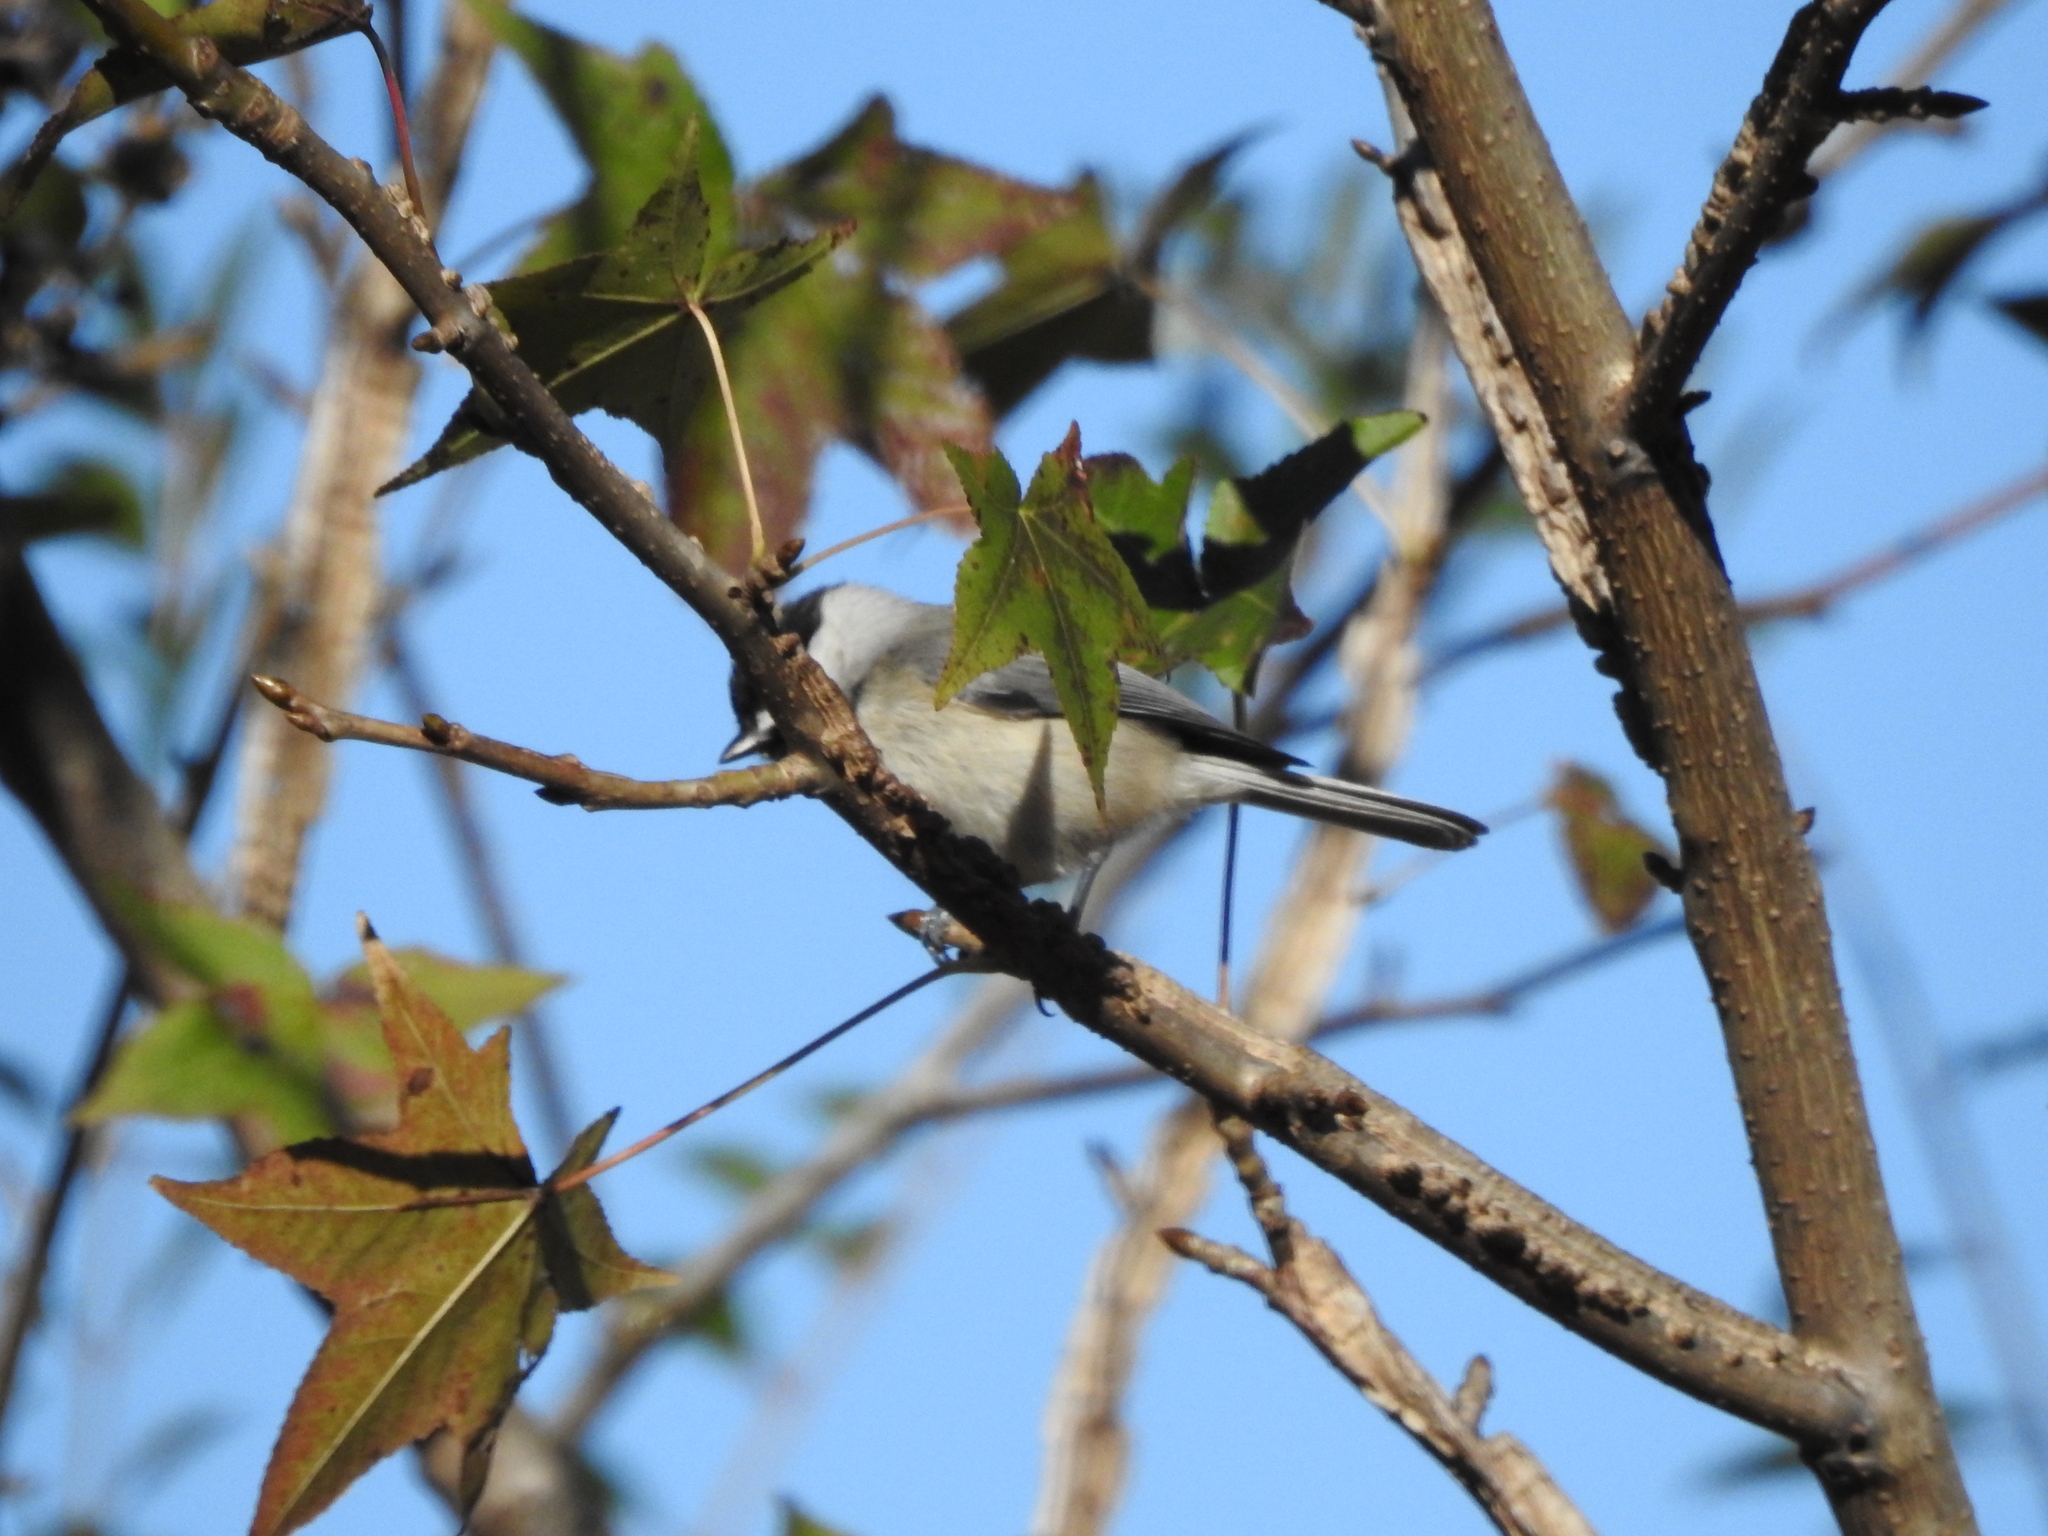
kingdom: Animalia
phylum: Chordata
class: Aves
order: Passeriformes
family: Paridae
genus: Poecile
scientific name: Poecile carolinensis
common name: Carolina chickadee
